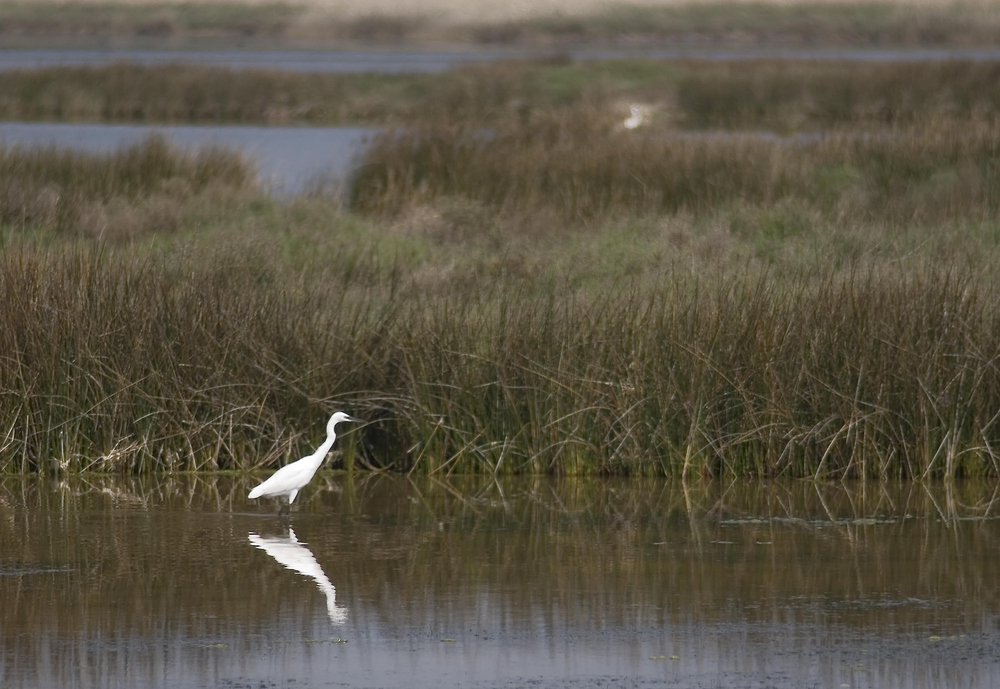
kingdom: Animalia
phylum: Chordata
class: Aves
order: Pelecaniformes
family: Ardeidae
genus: Egretta
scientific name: Egretta garzetta
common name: Little egret
